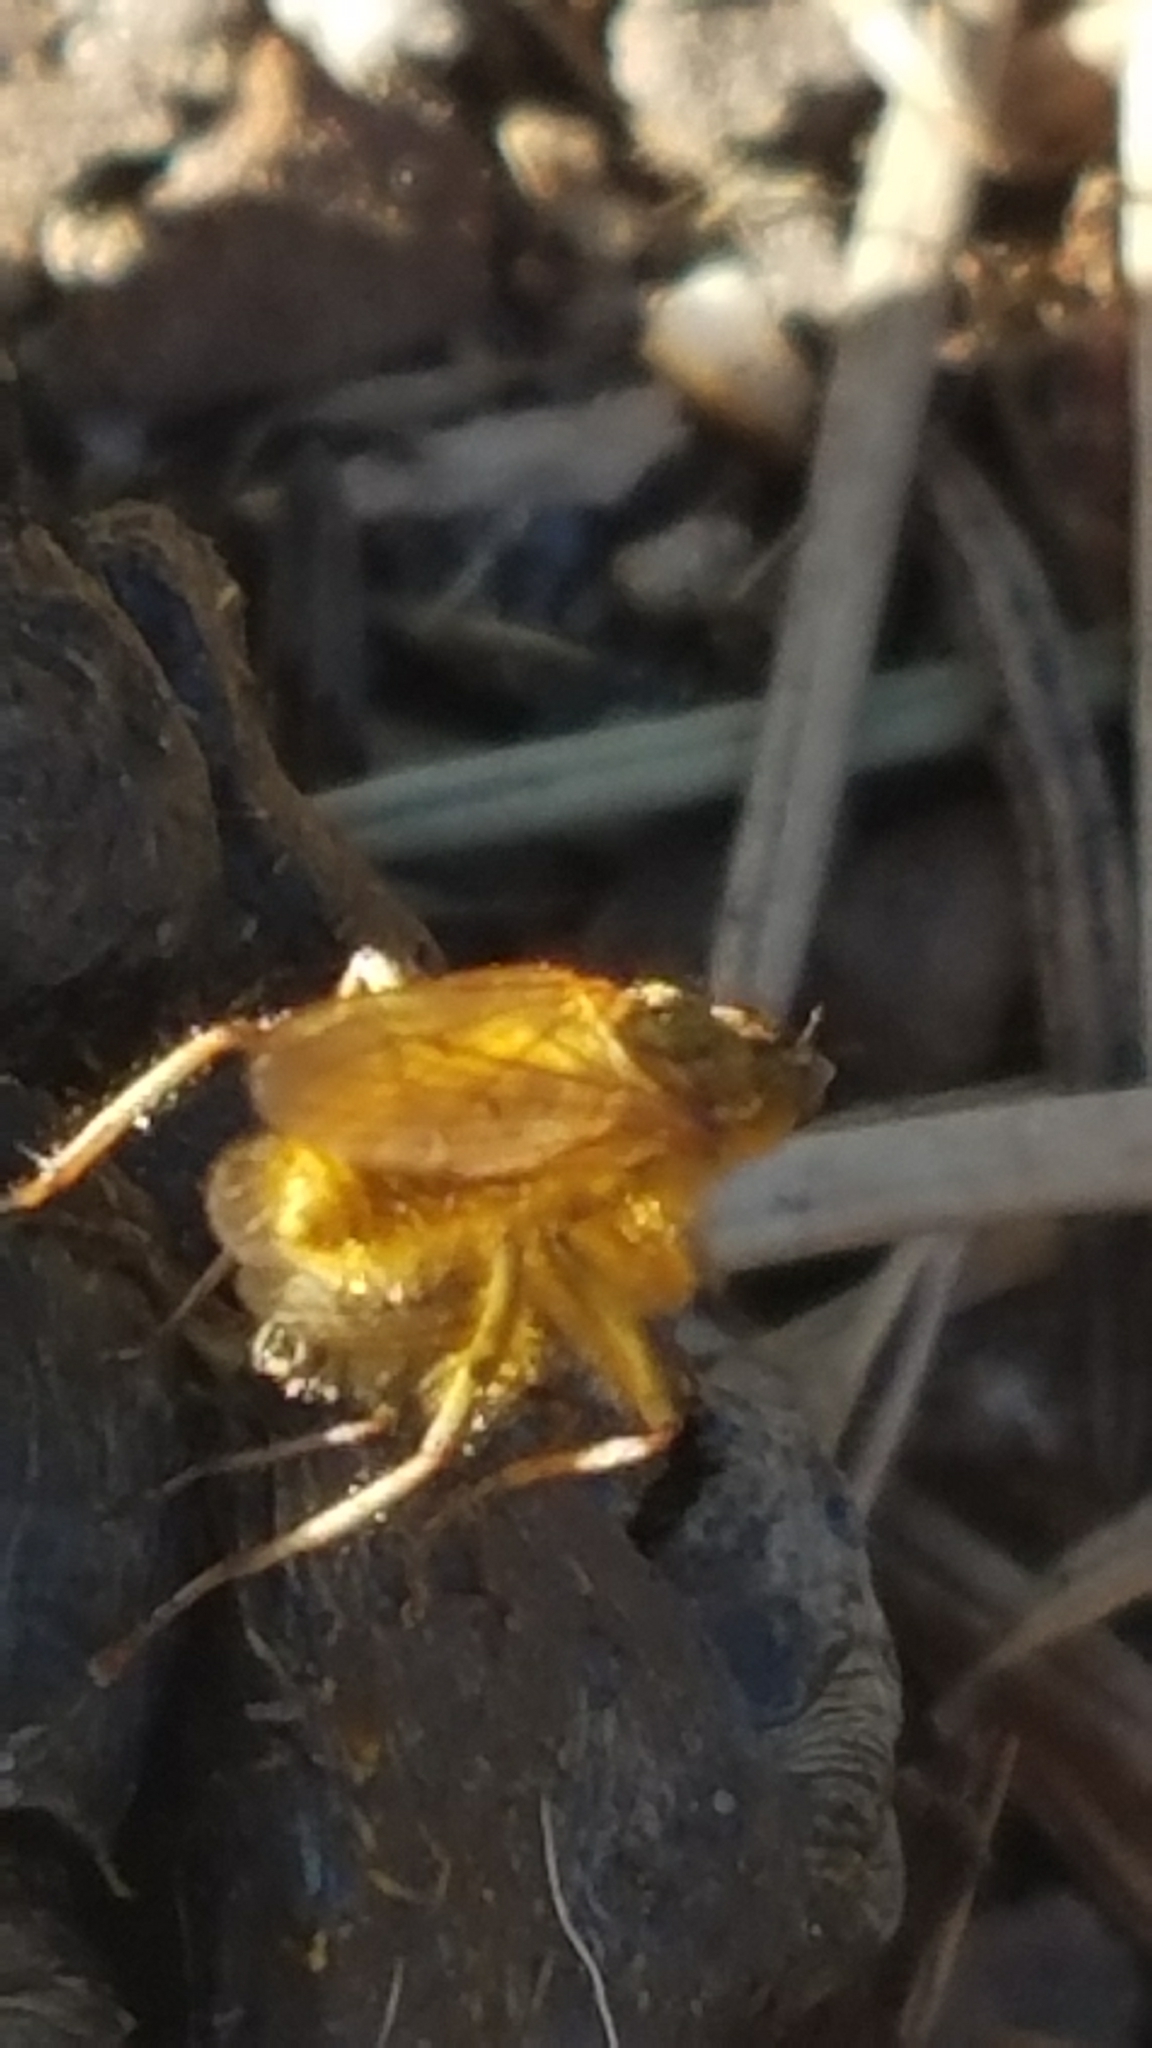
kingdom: Animalia
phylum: Arthropoda
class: Insecta
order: Diptera
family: Scathophagidae
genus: Scathophaga
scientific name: Scathophaga stercoraria
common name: Yellow dung fly
